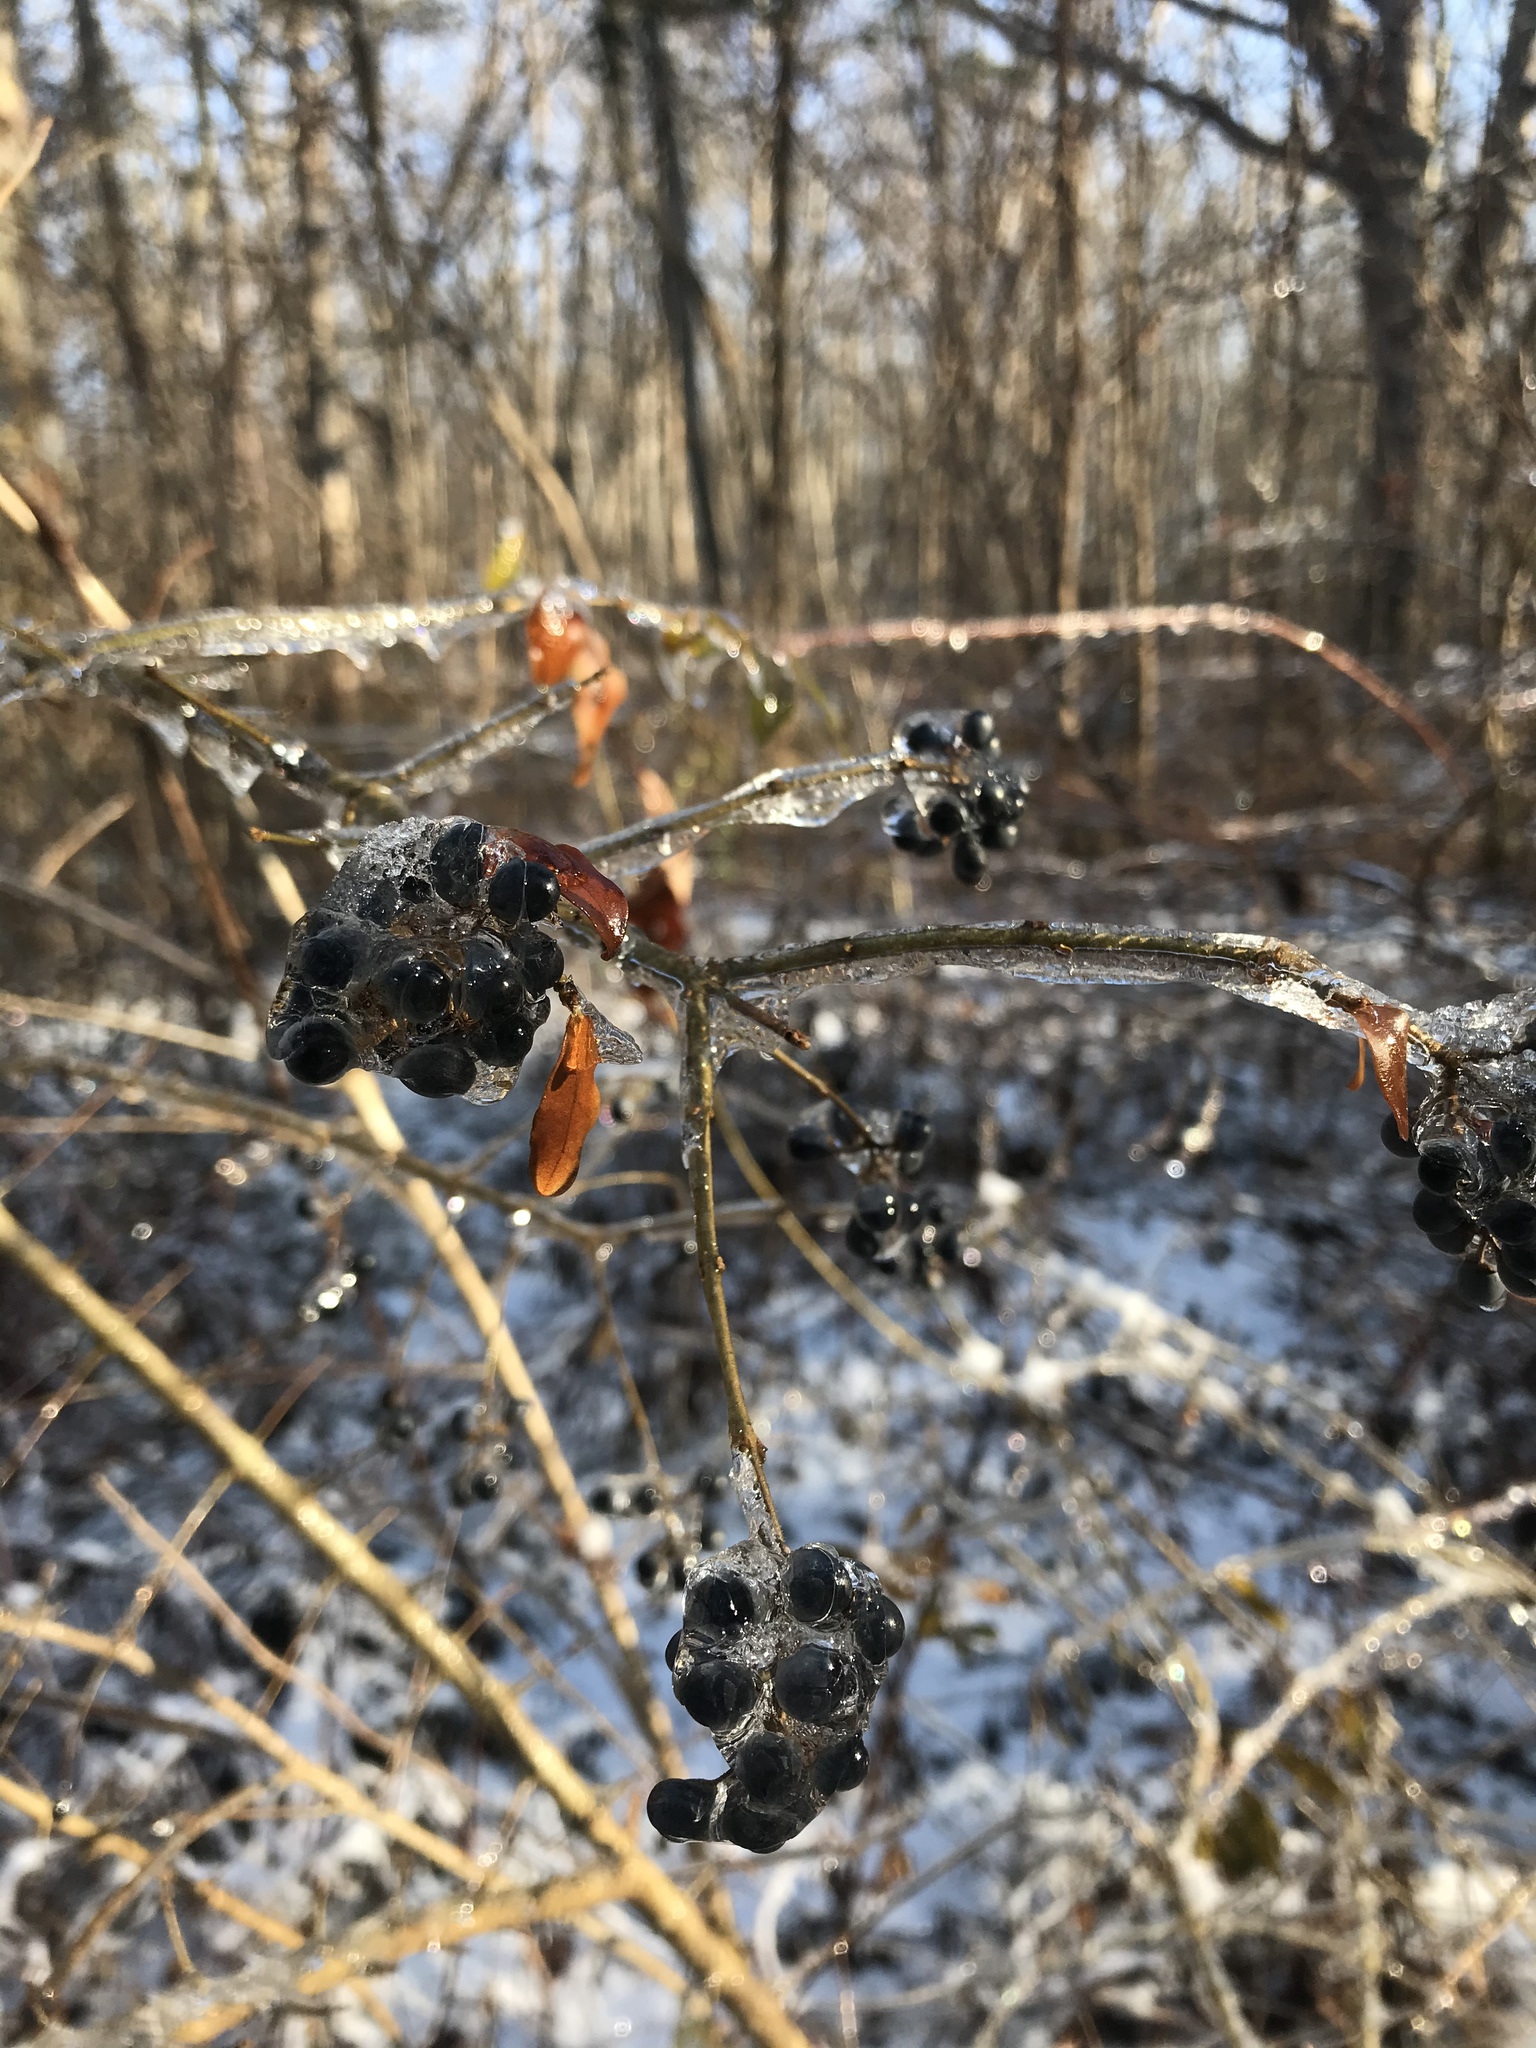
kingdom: Plantae
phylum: Tracheophyta
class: Magnoliopsida
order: Lamiales
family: Oleaceae
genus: Ligustrum
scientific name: Ligustrum obtusifolium
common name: Border privet
